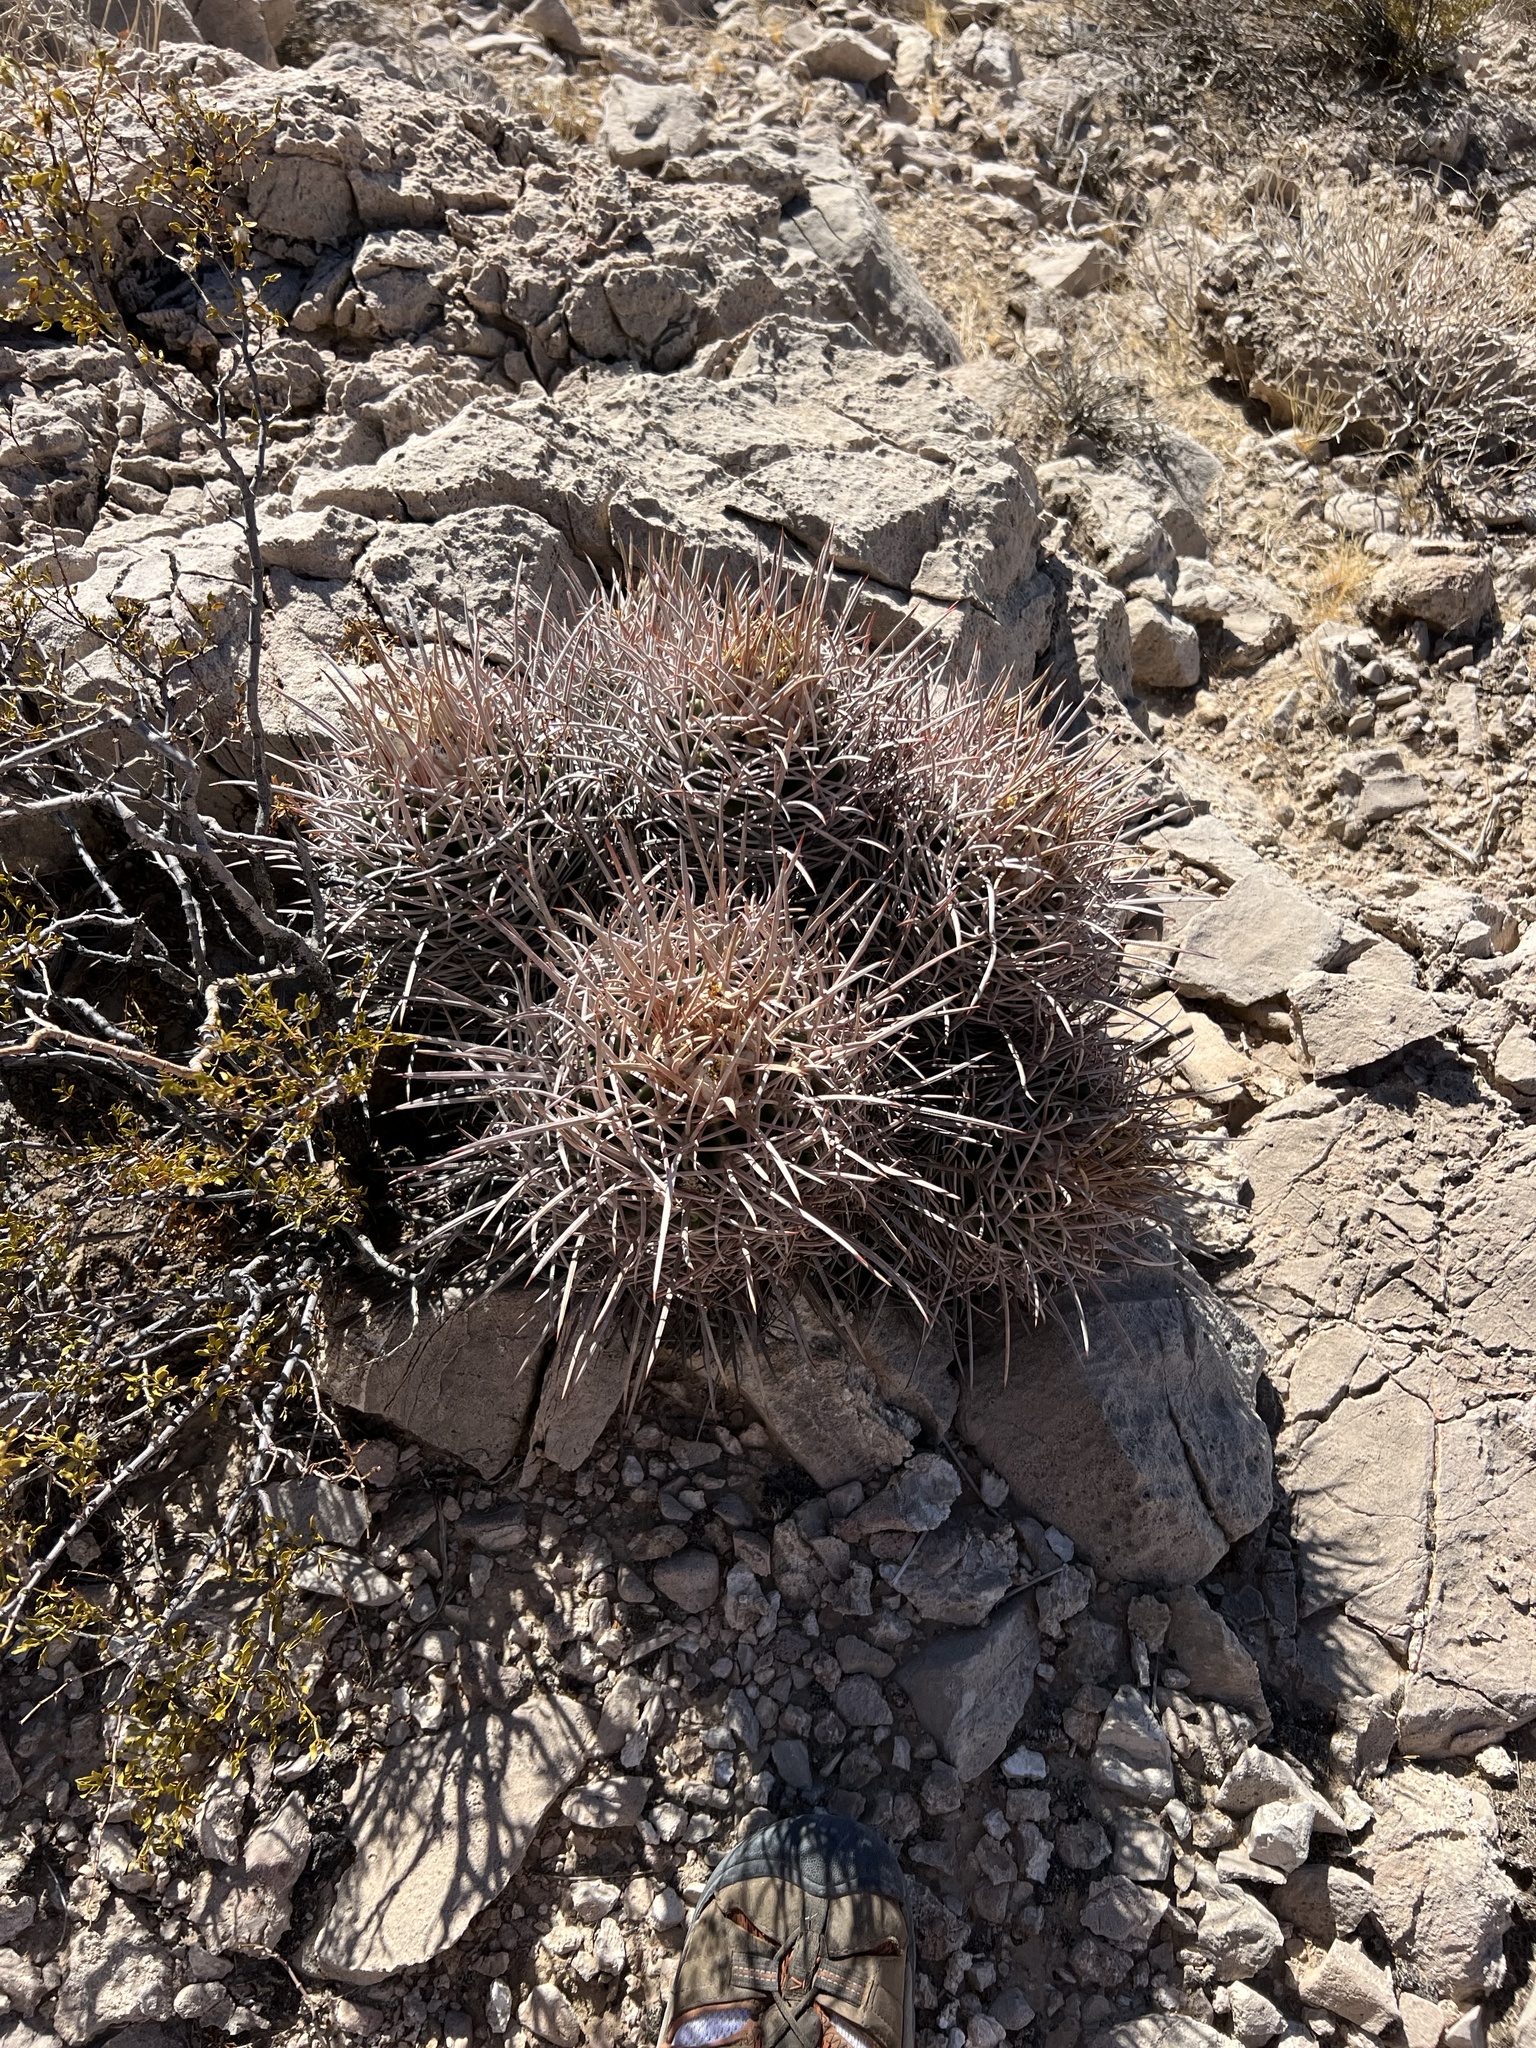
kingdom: Plantae
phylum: Tracheophyta
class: Magnoliopsida
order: Caryophyllales
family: Cactaceae
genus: Echinocactus
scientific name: Echinocactus polycephalus
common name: Cottontop cactus
